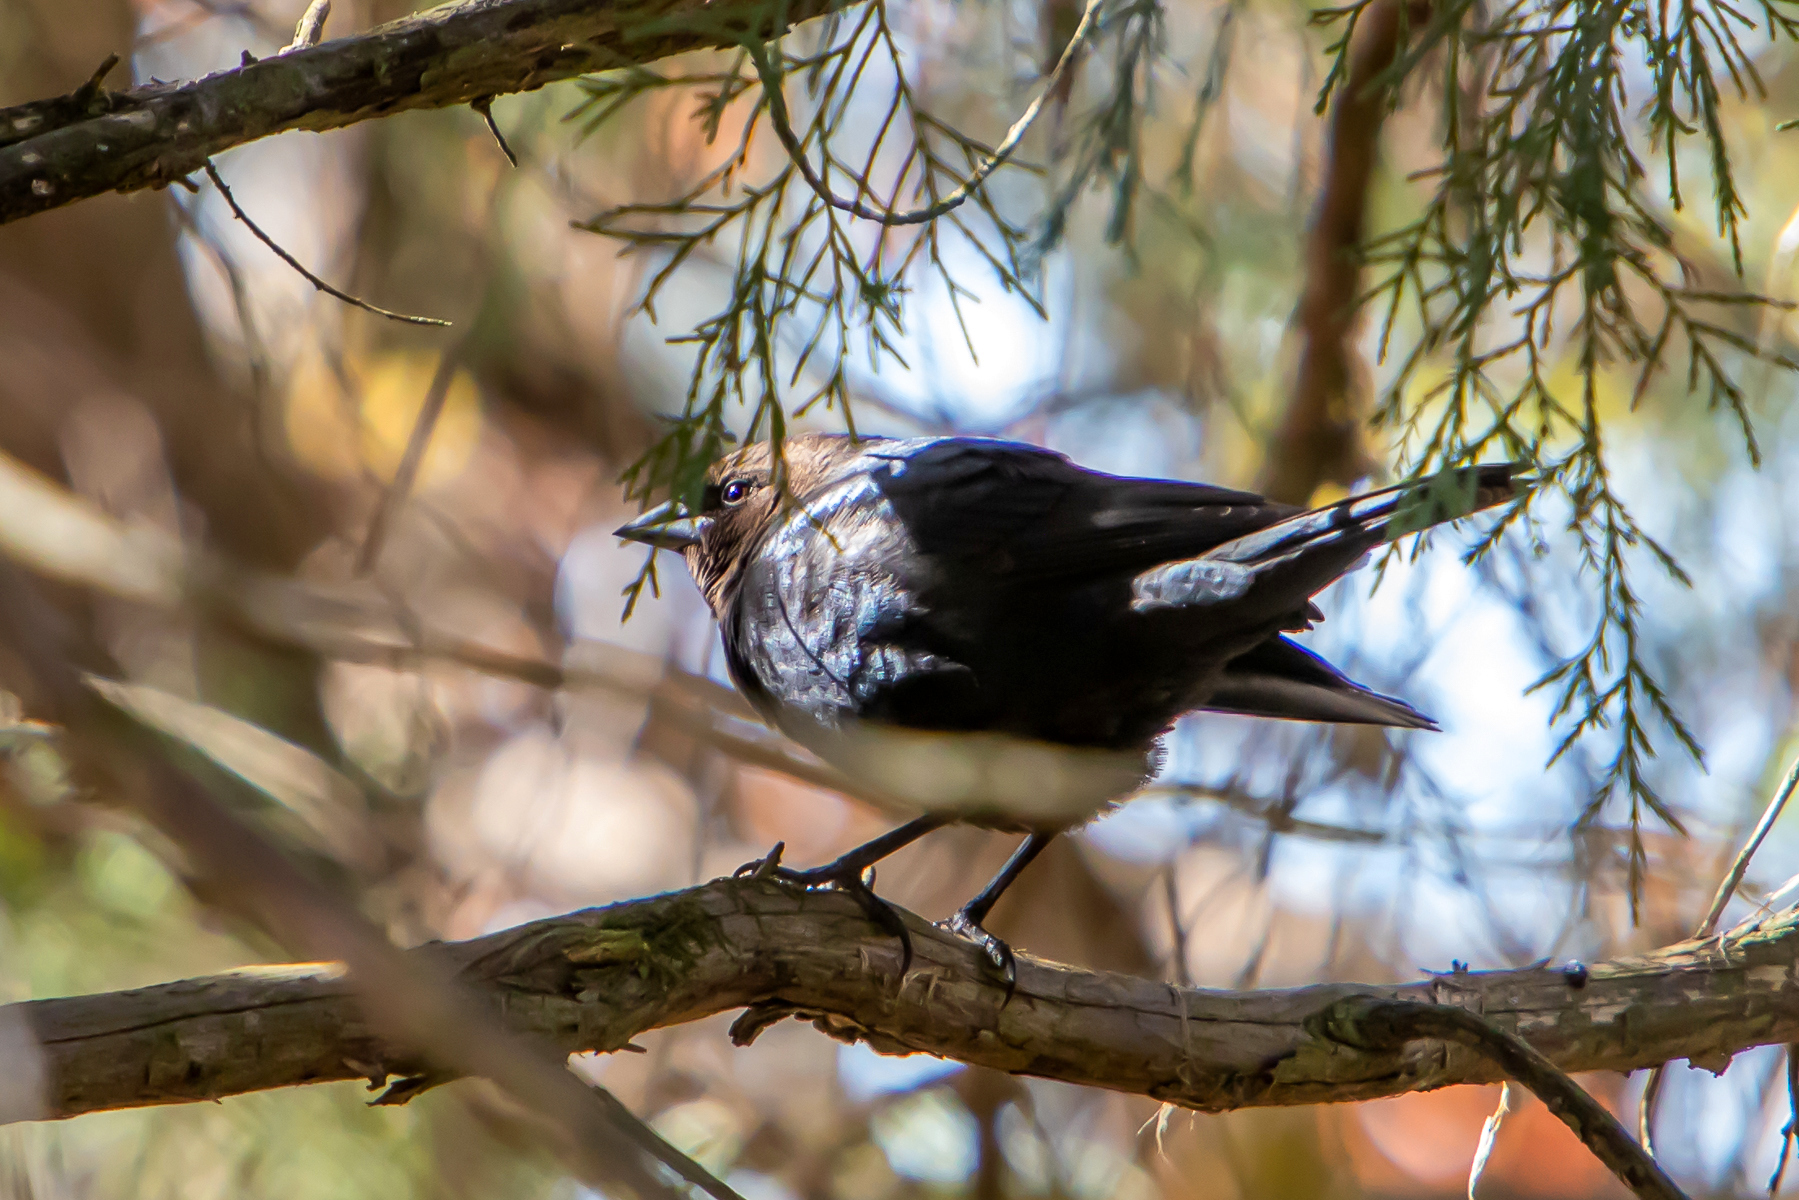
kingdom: Animalia
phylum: Chordata
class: Aves
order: Passeriformes
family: Icteridae
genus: Molothrus
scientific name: Molothrus ater
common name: Brown-headed cowbird
